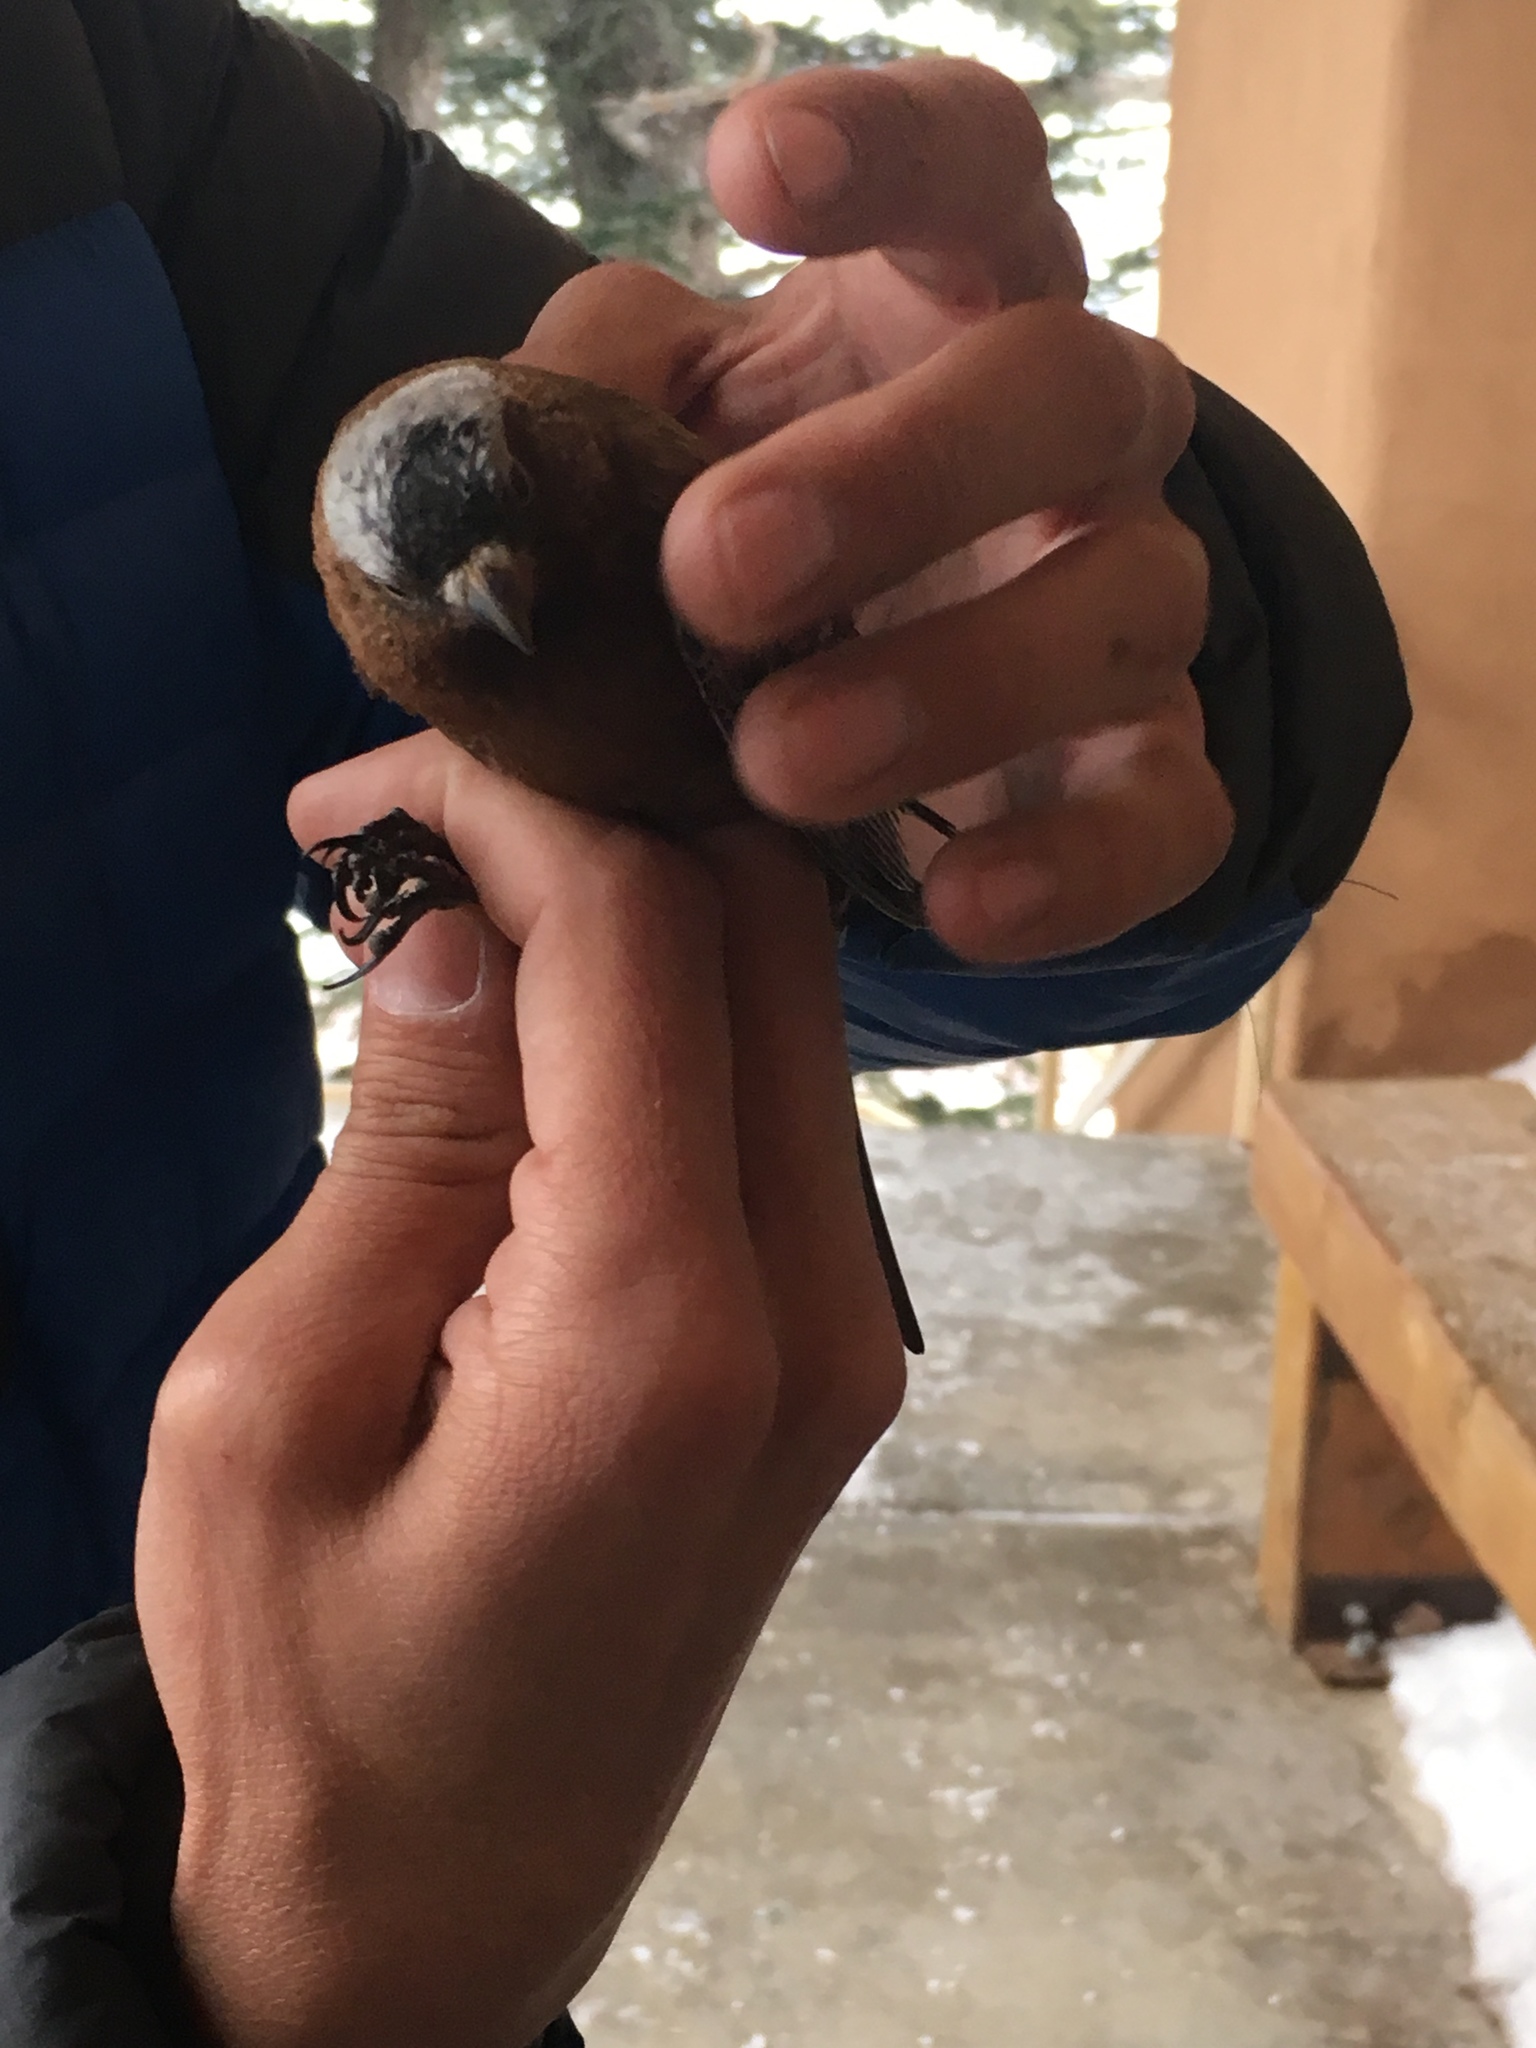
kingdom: Animalia
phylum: Chordata
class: Aves
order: Passeriformes
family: Fringillidae
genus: Leucosticte
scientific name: Leucosticte atrata
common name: Black rosy-finch
